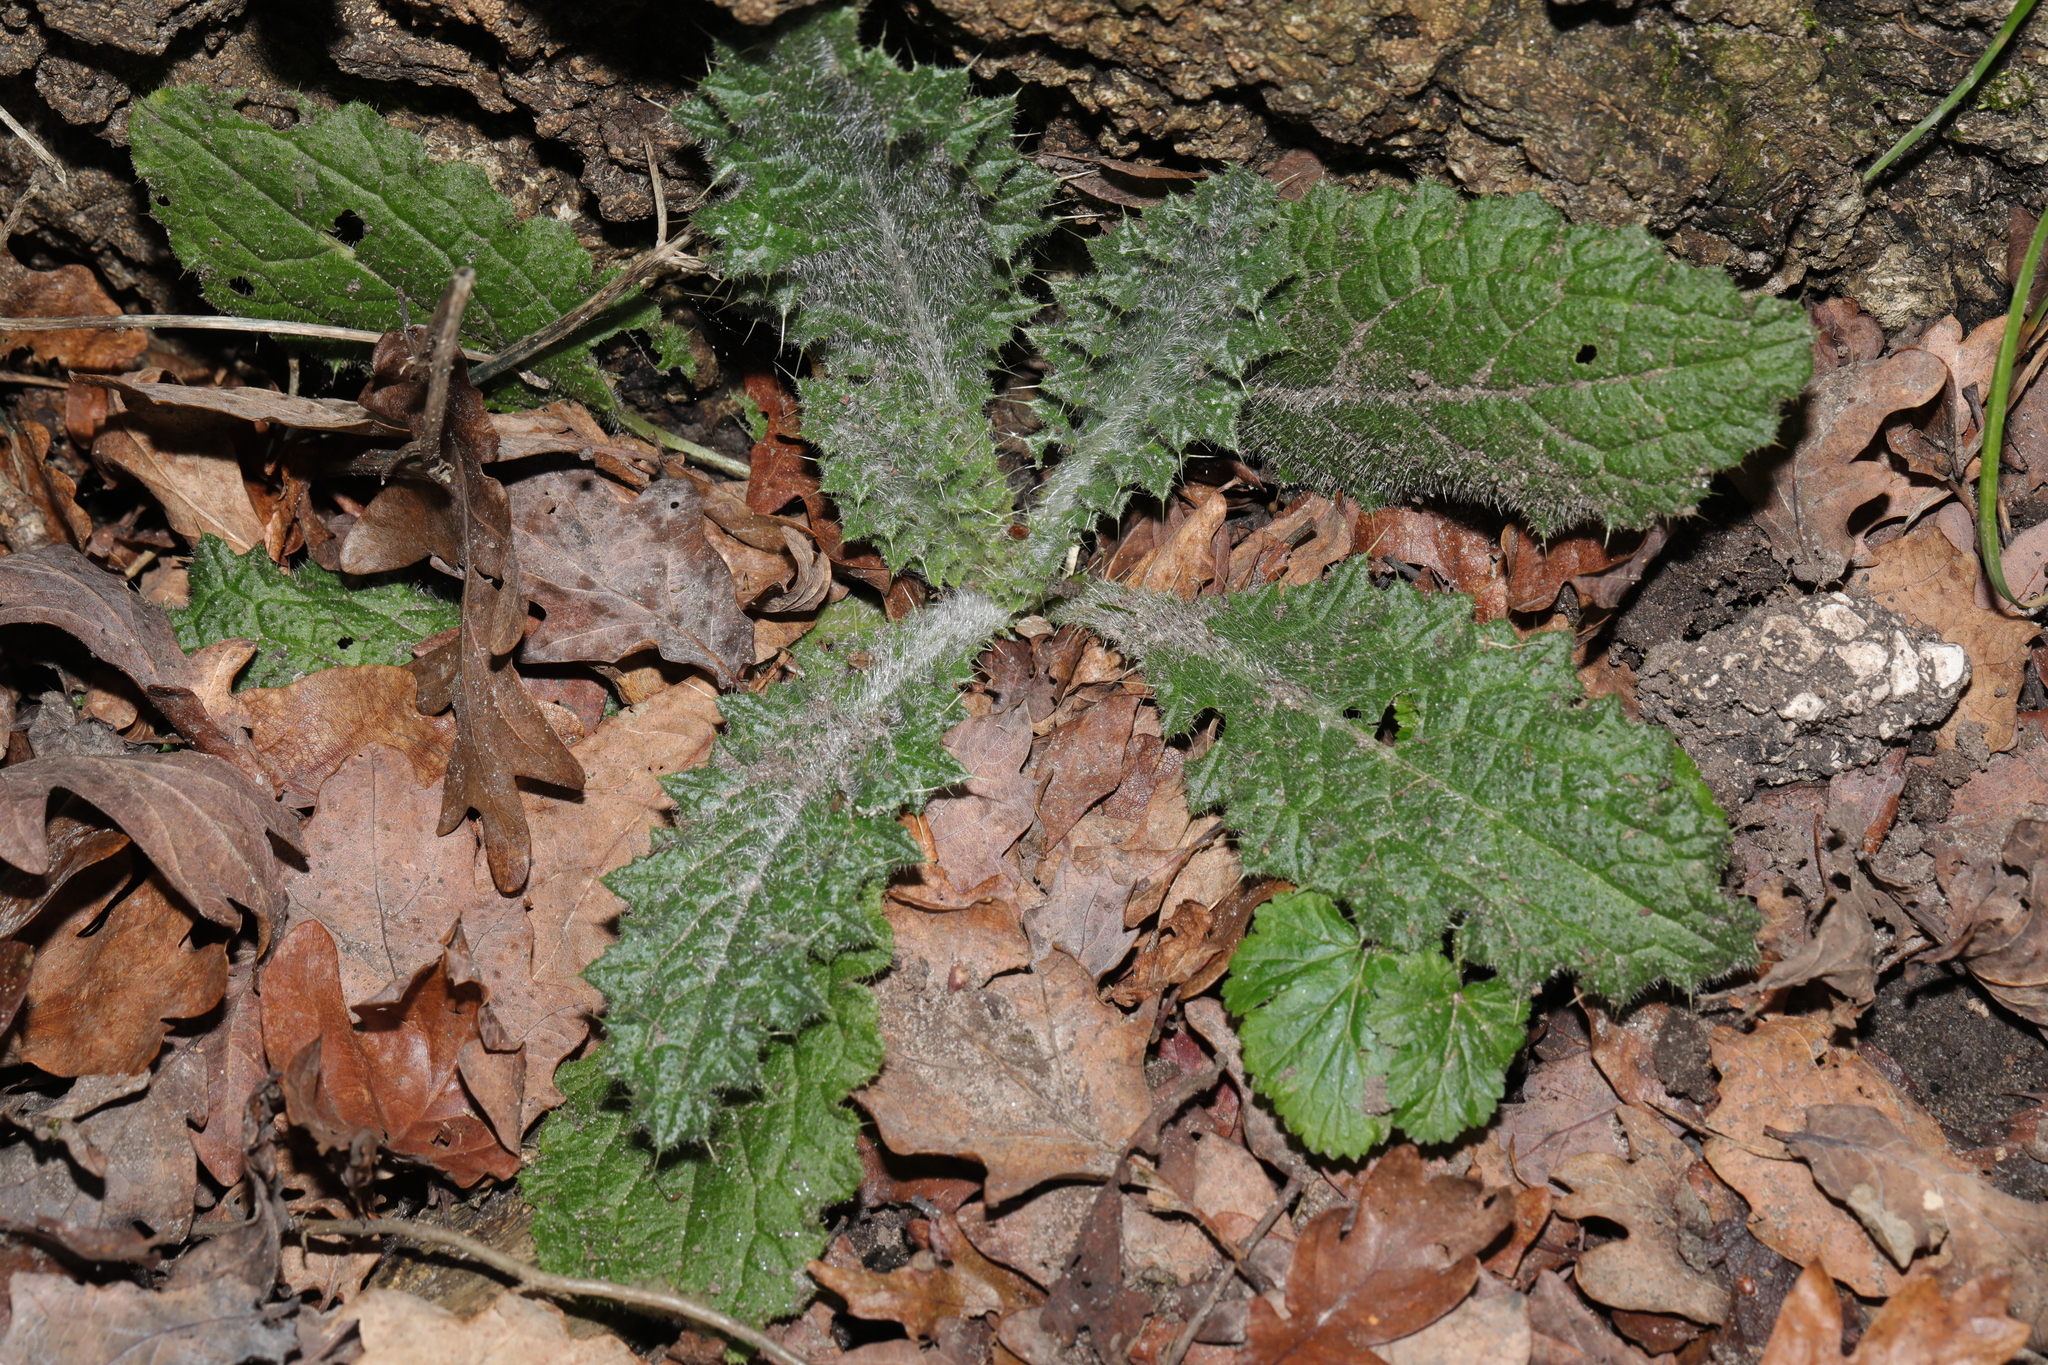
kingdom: Plantae
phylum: Tracheophyta
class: Magnoliopsida
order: Asterales
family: Asteraceae
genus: Cirsium
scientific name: Cirsium vulgare
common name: Bull thistle
